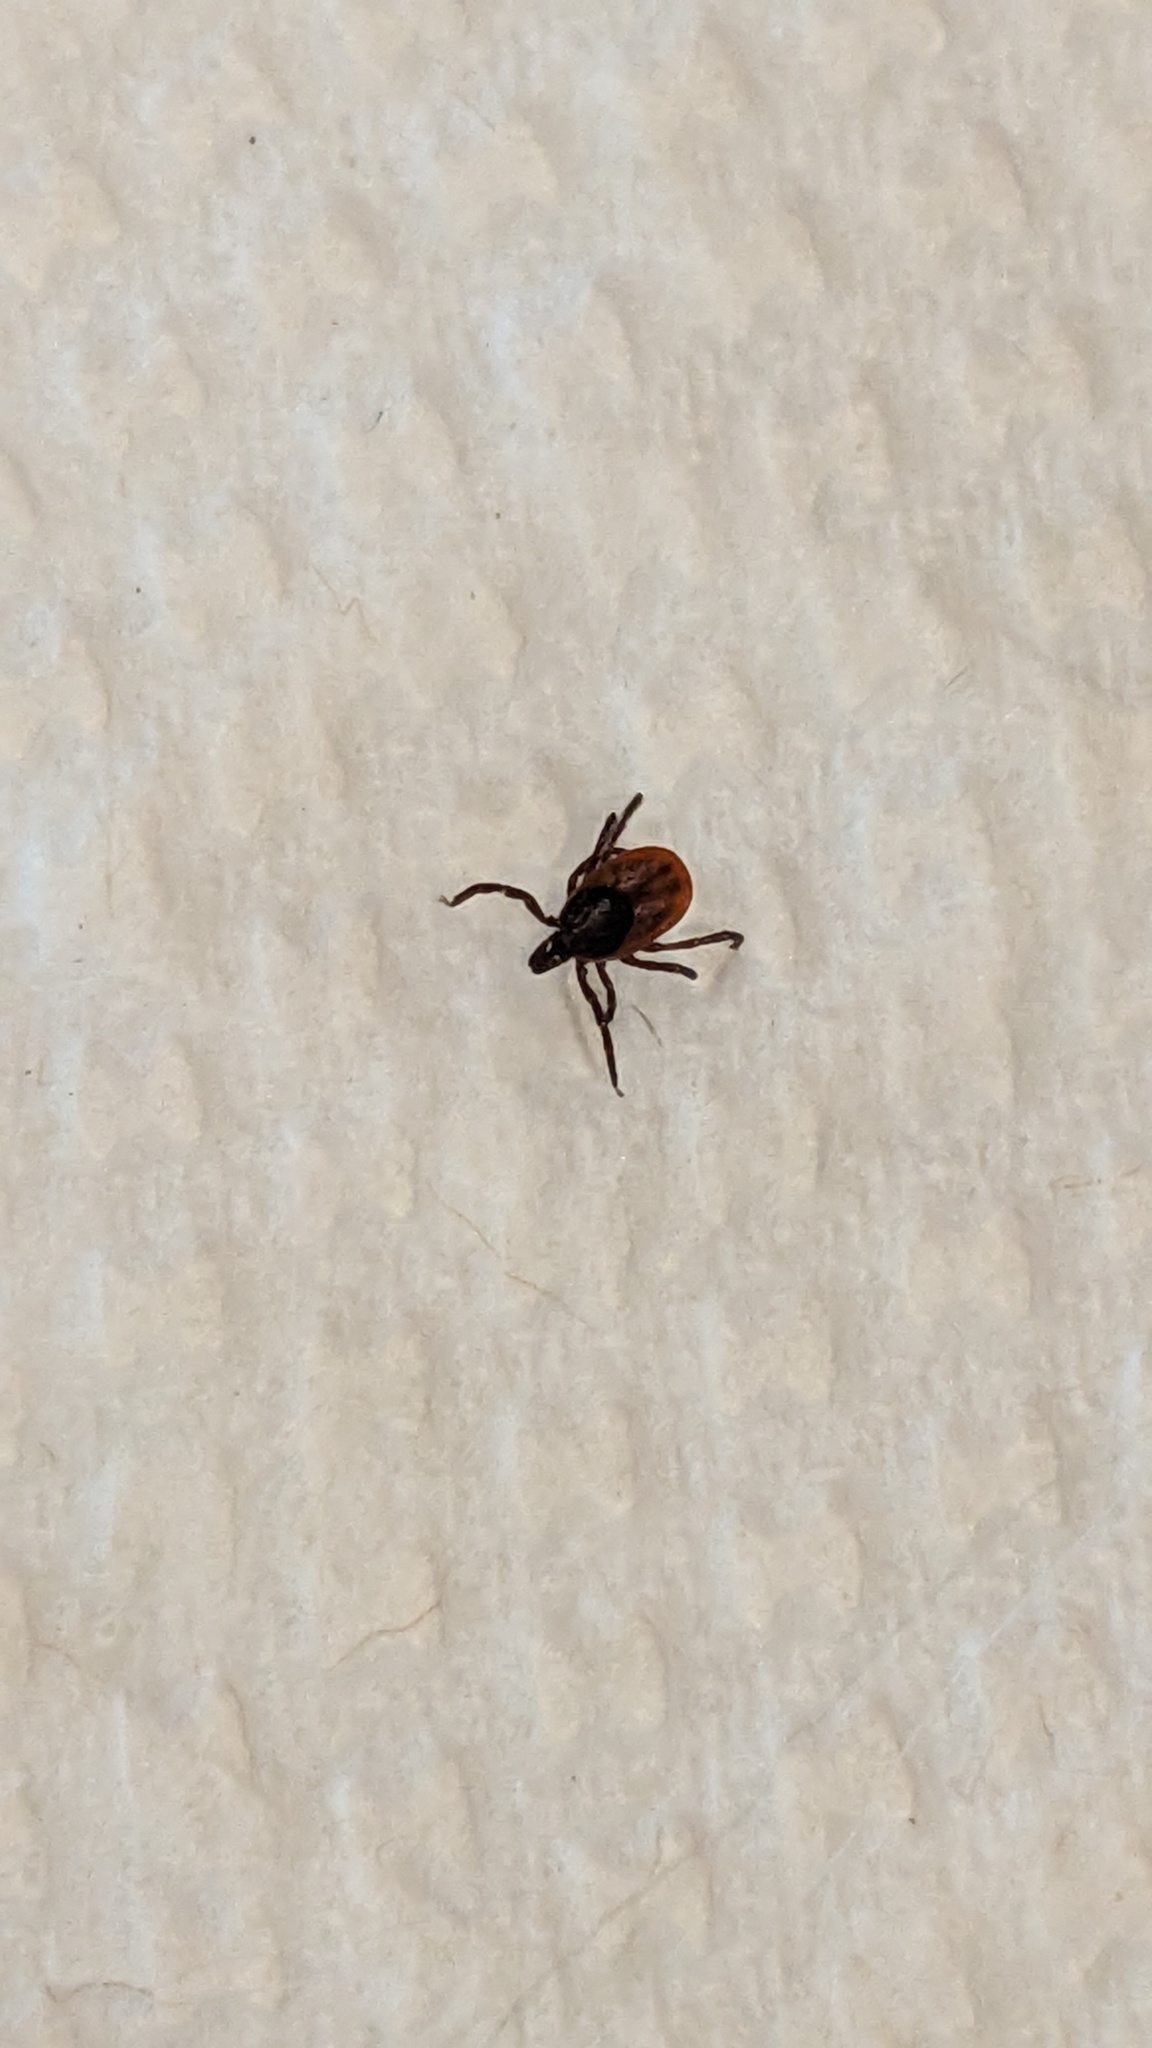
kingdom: Animalia
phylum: Arthropoda
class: Arachnida
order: Ixodida
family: Ixodidae
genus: Ixodes
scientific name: Ixodes scapularis
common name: Black legged tick
